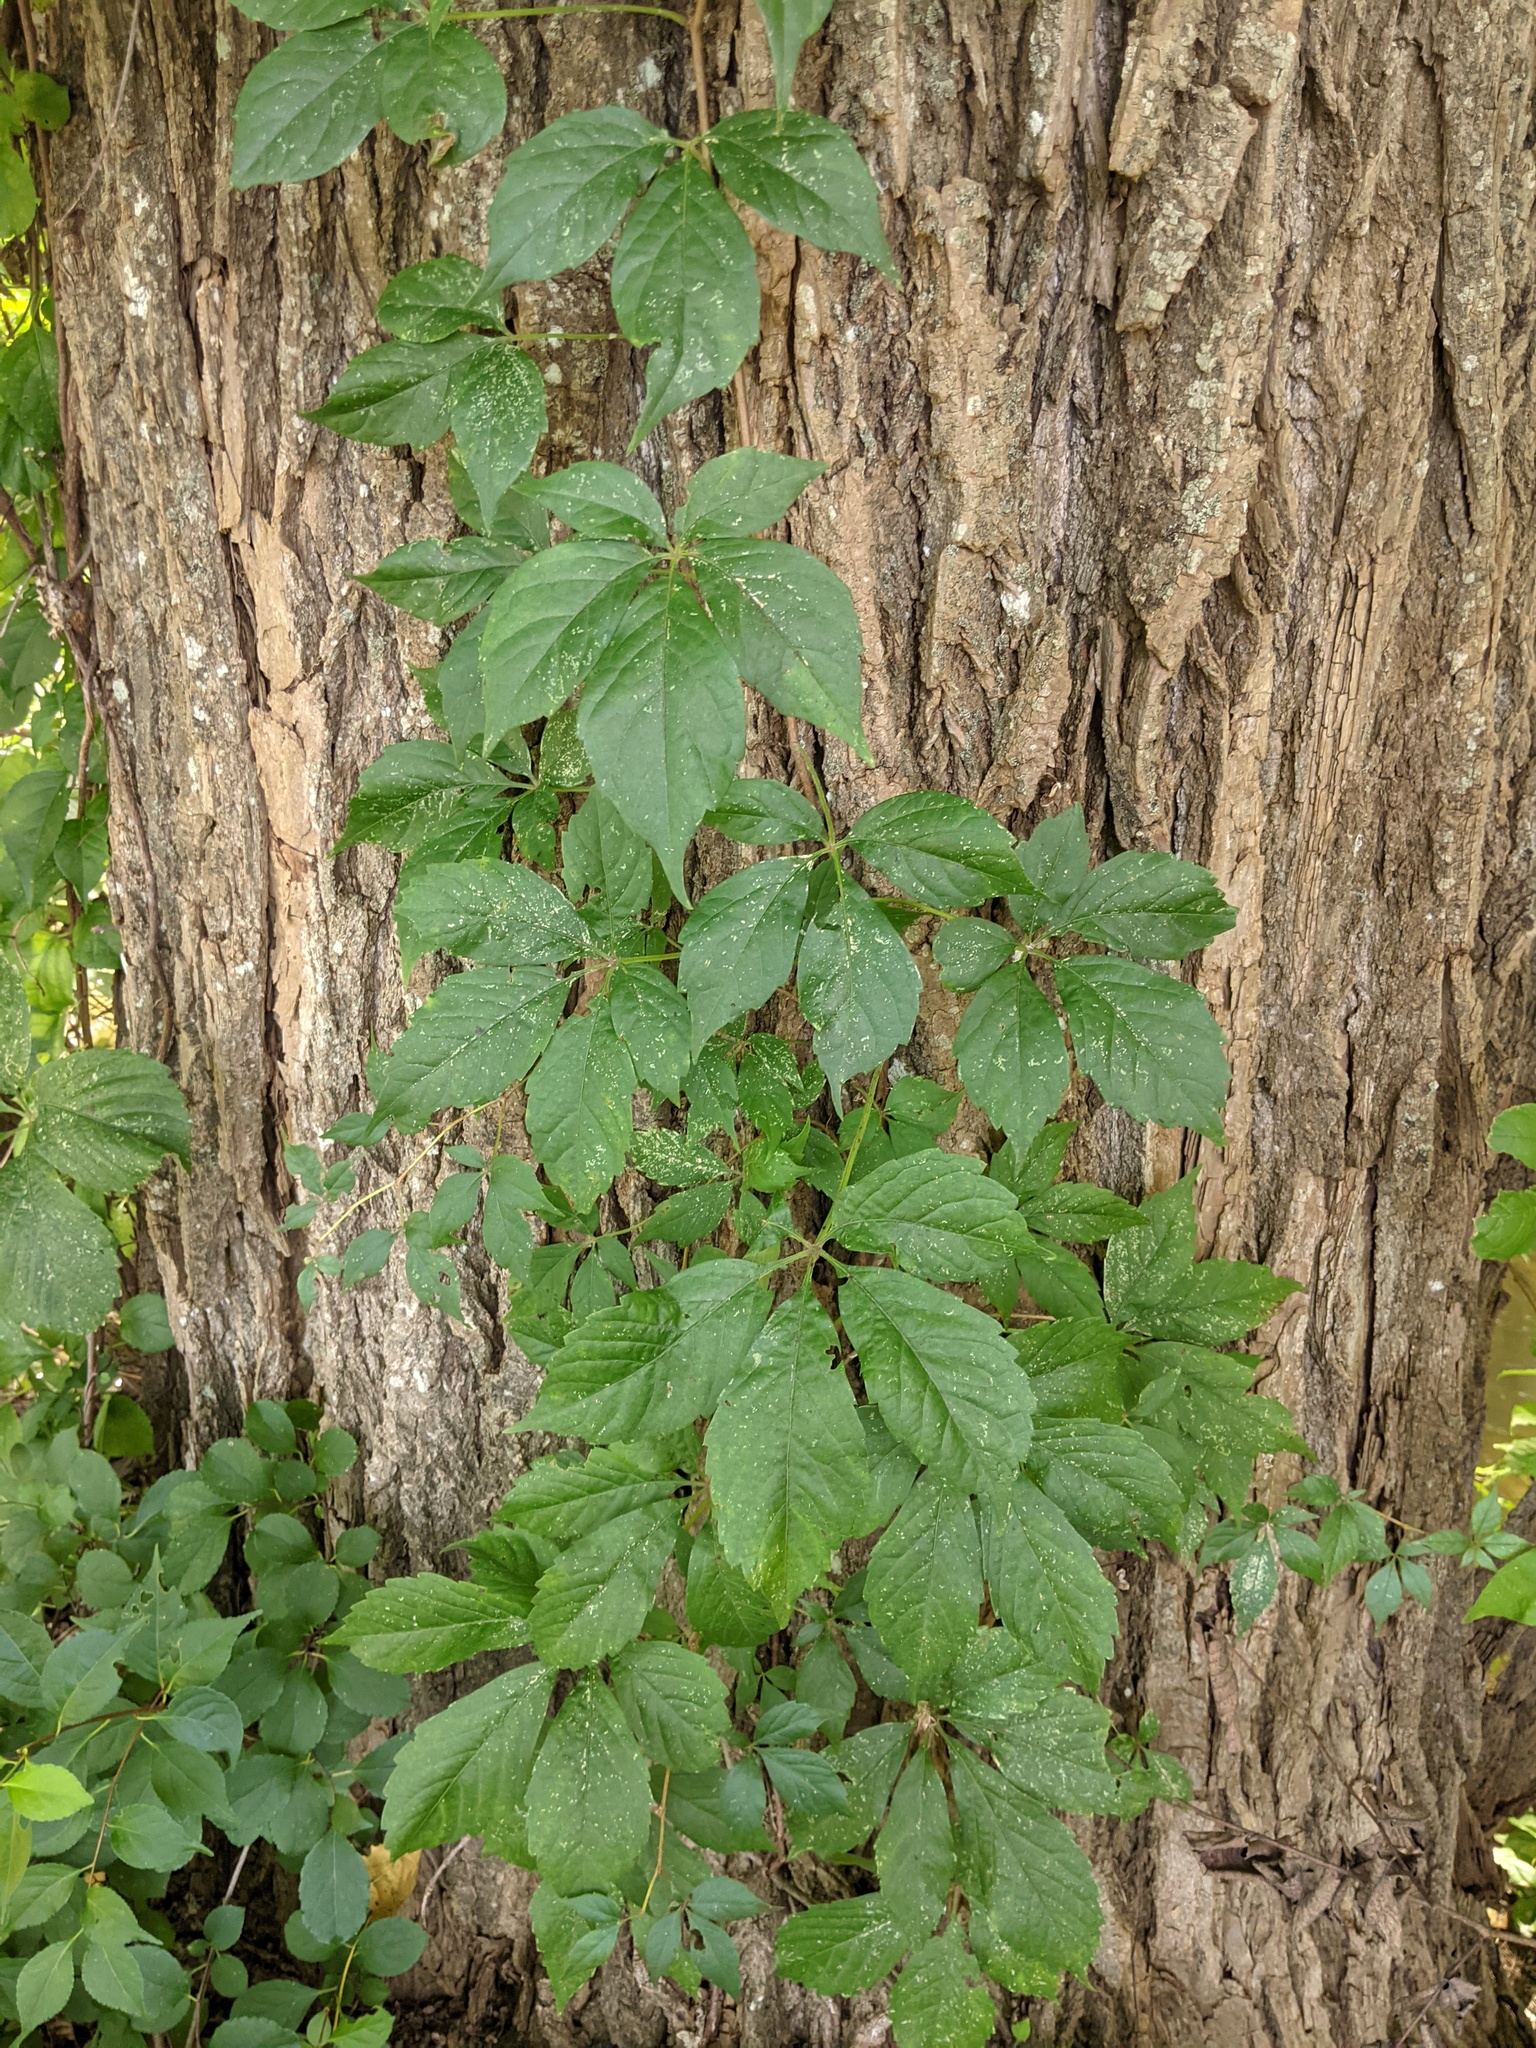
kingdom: Plantae
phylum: Tracheophyta
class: Magnoliopsida
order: Vitales
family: Vitaceae
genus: Parthenocissus
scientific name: Parthenocissus quinquefolia
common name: Virginia-creeper
